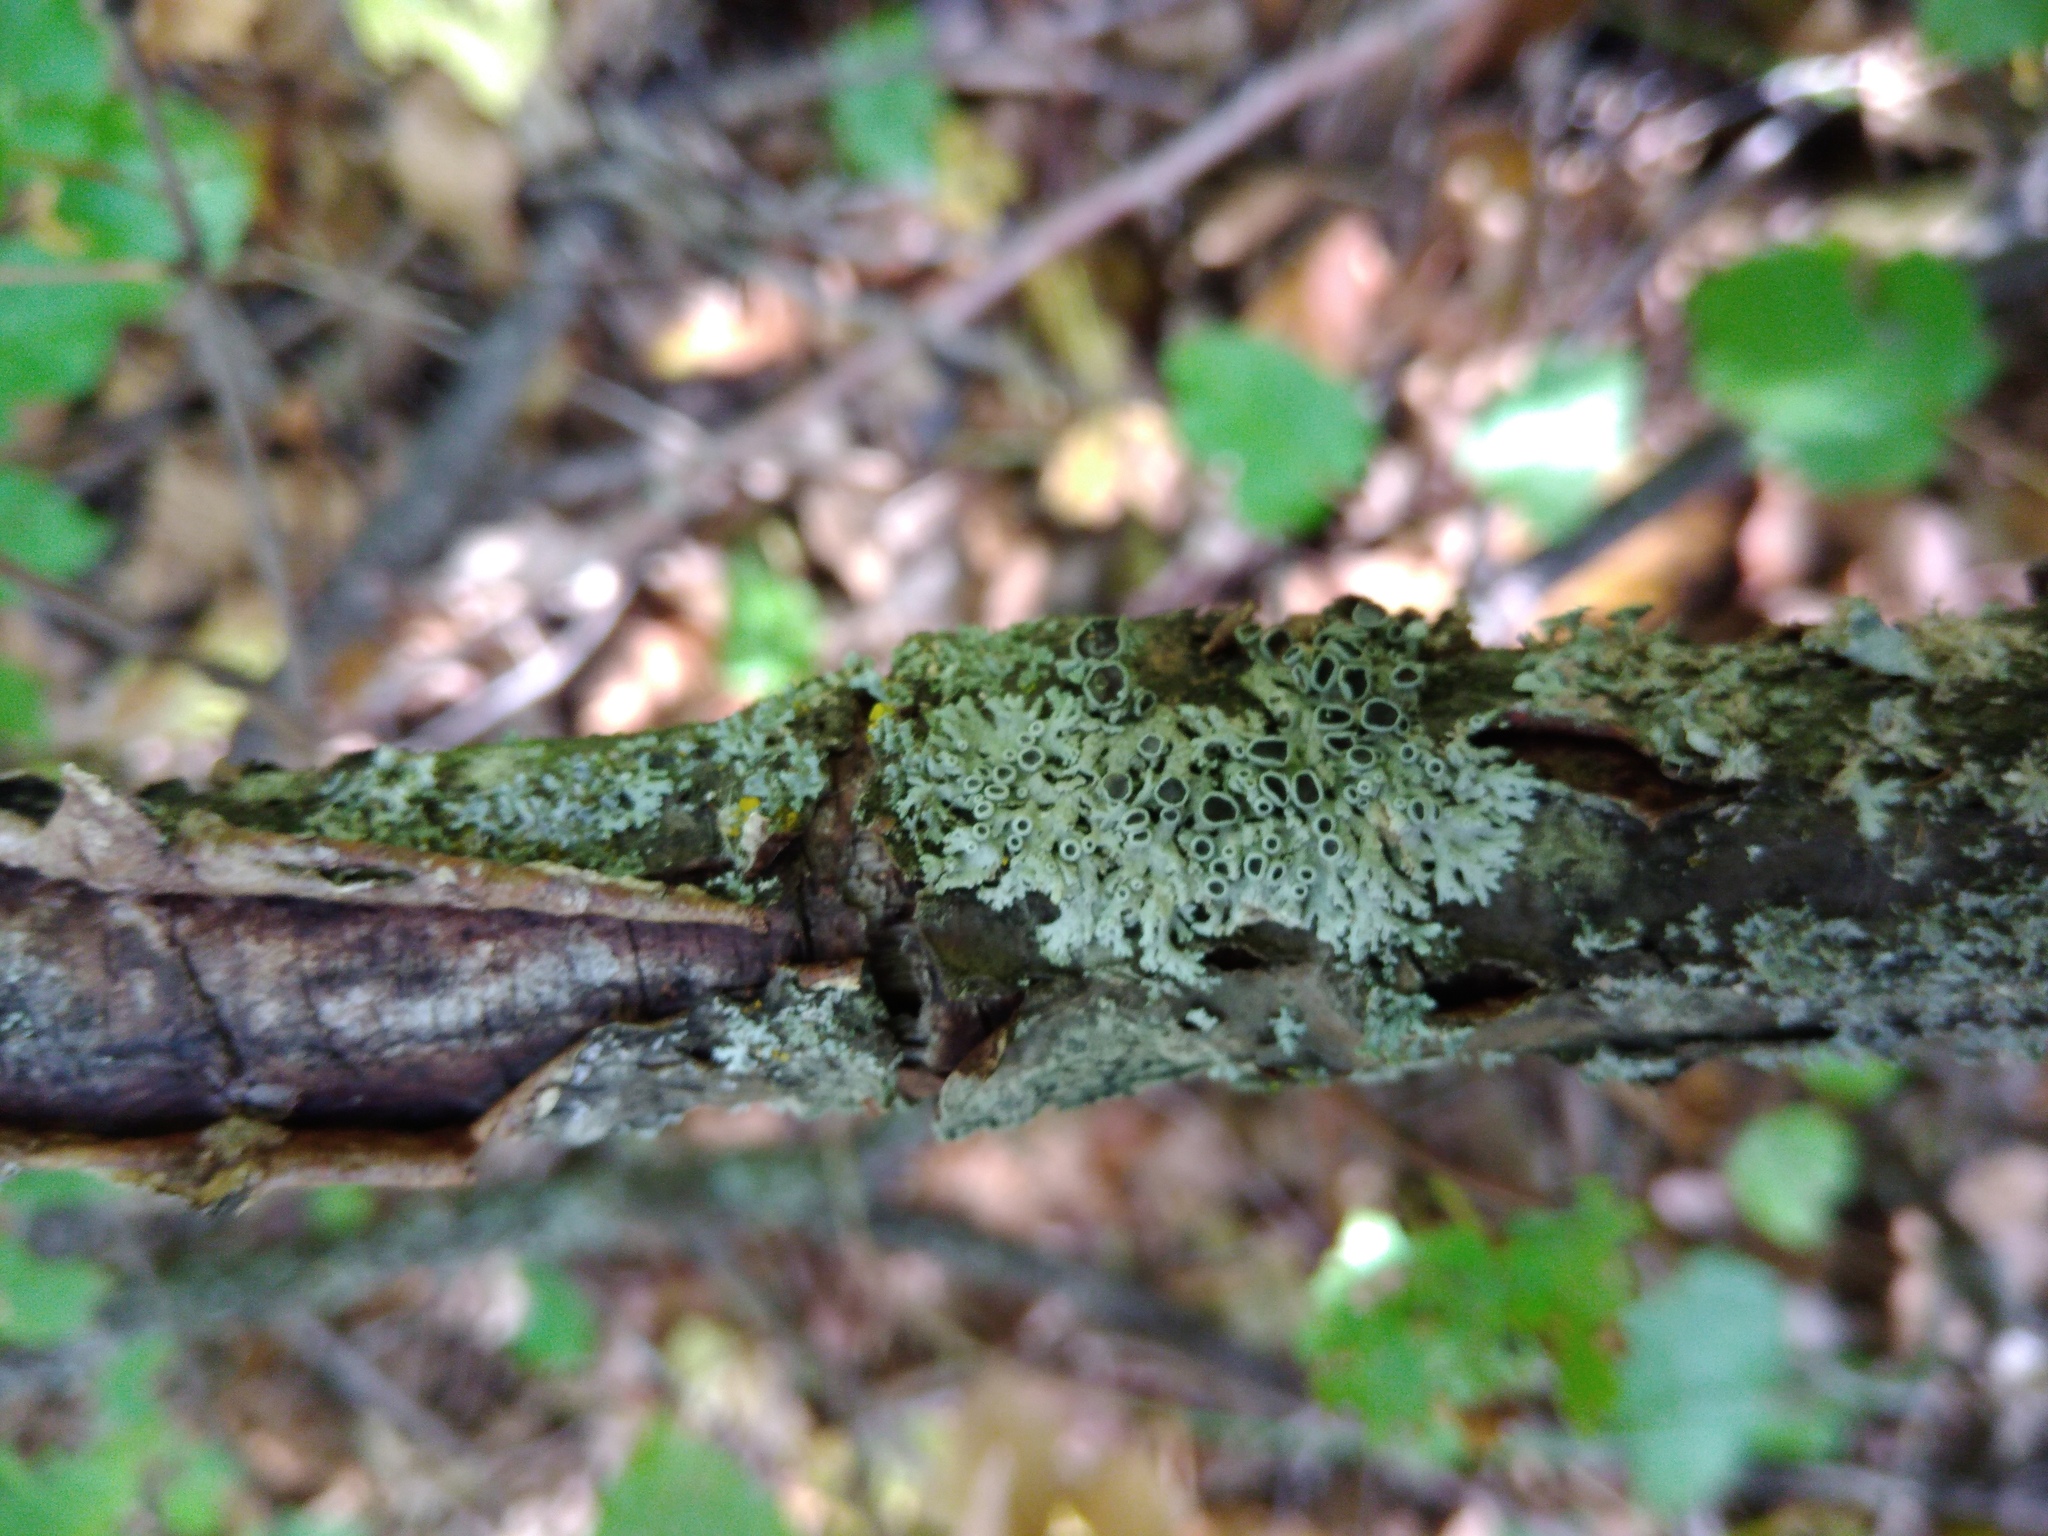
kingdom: Fungi
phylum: Ascomycota
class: Lecanoromycetes
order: Caliciales
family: Physciaceae
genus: Physcia
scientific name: Physcia stellaris
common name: Star rosette lichen
